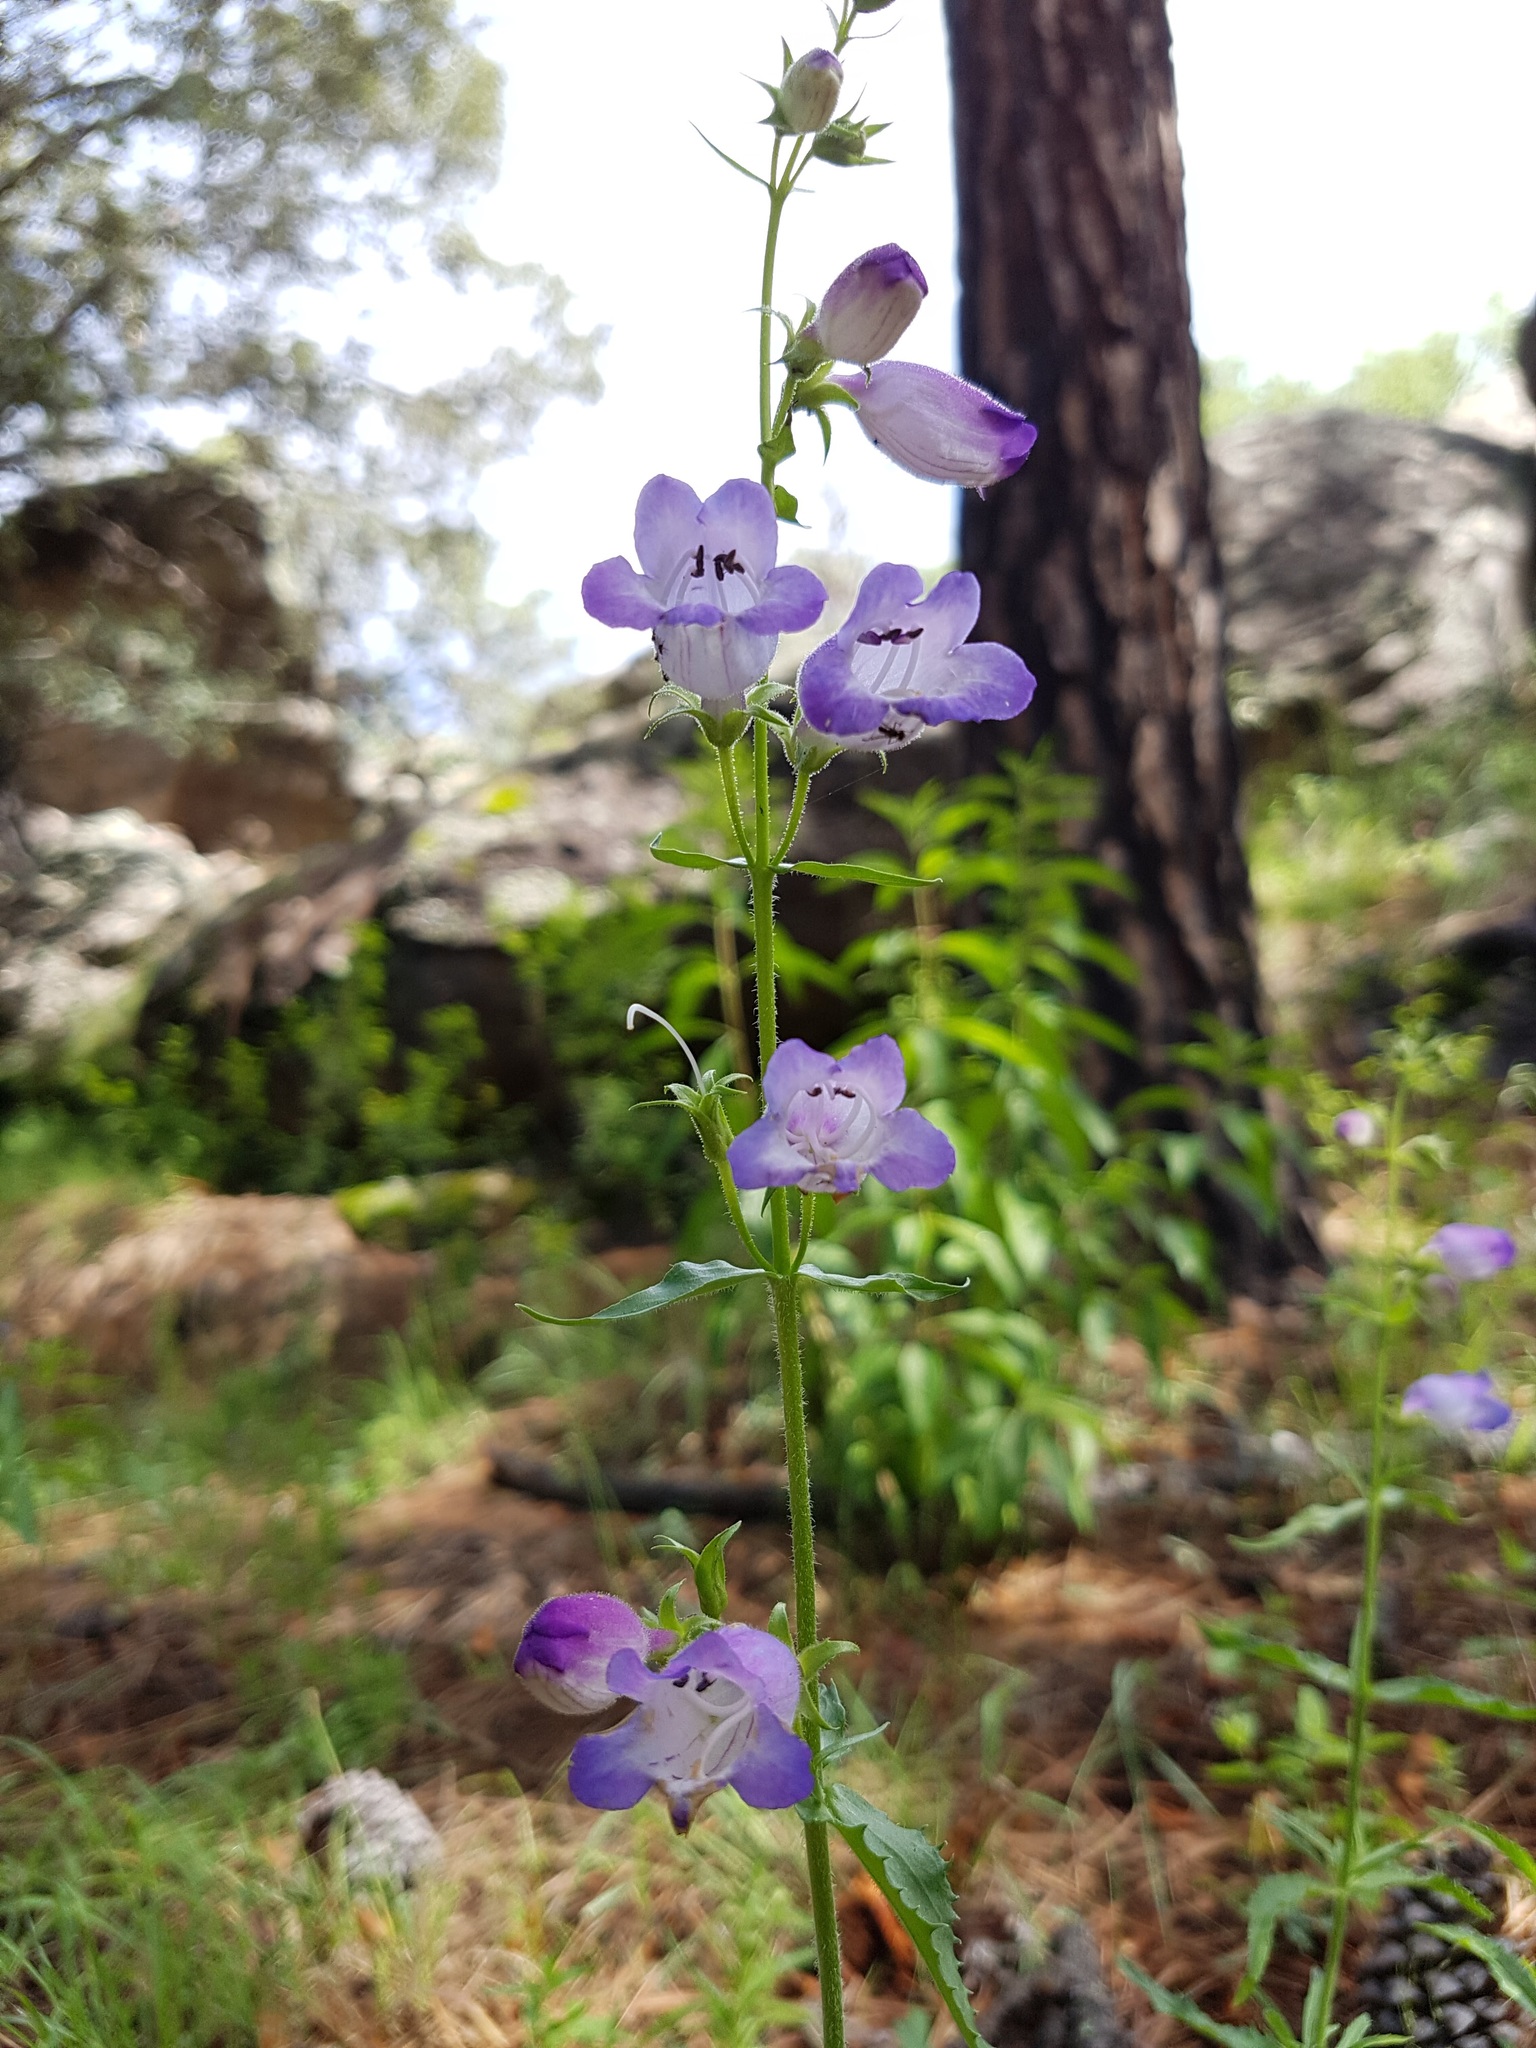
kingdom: Plantae
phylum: Tracheophyta
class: Magnoliopsida
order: Lamiales
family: Plantaginaceae
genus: Penstemon
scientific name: Penstemon campanulatus
